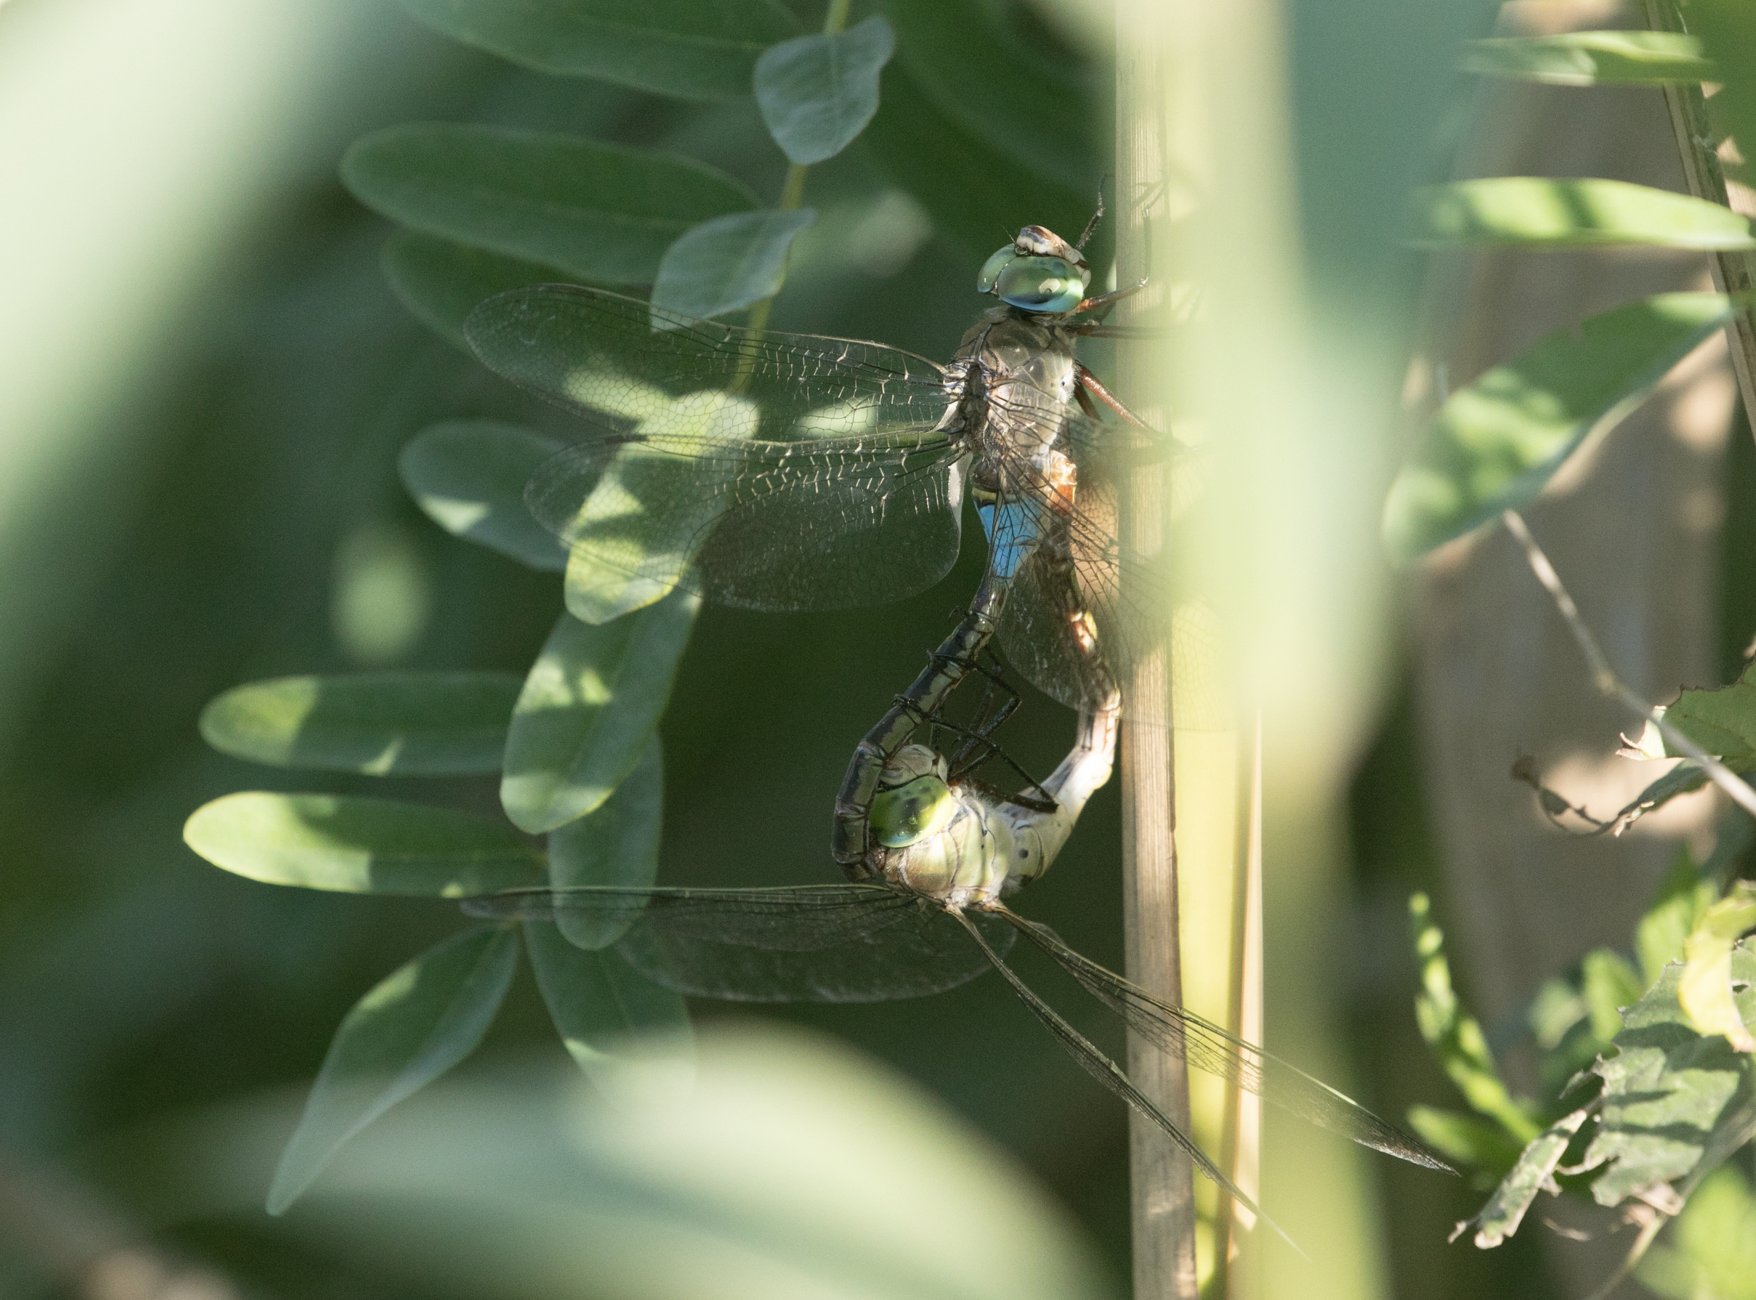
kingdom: Animalia
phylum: Arthropoda
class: Insecta
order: Odonata
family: Aeshnidae
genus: Anax
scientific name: Anax parthenope
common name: Lesser emperor
